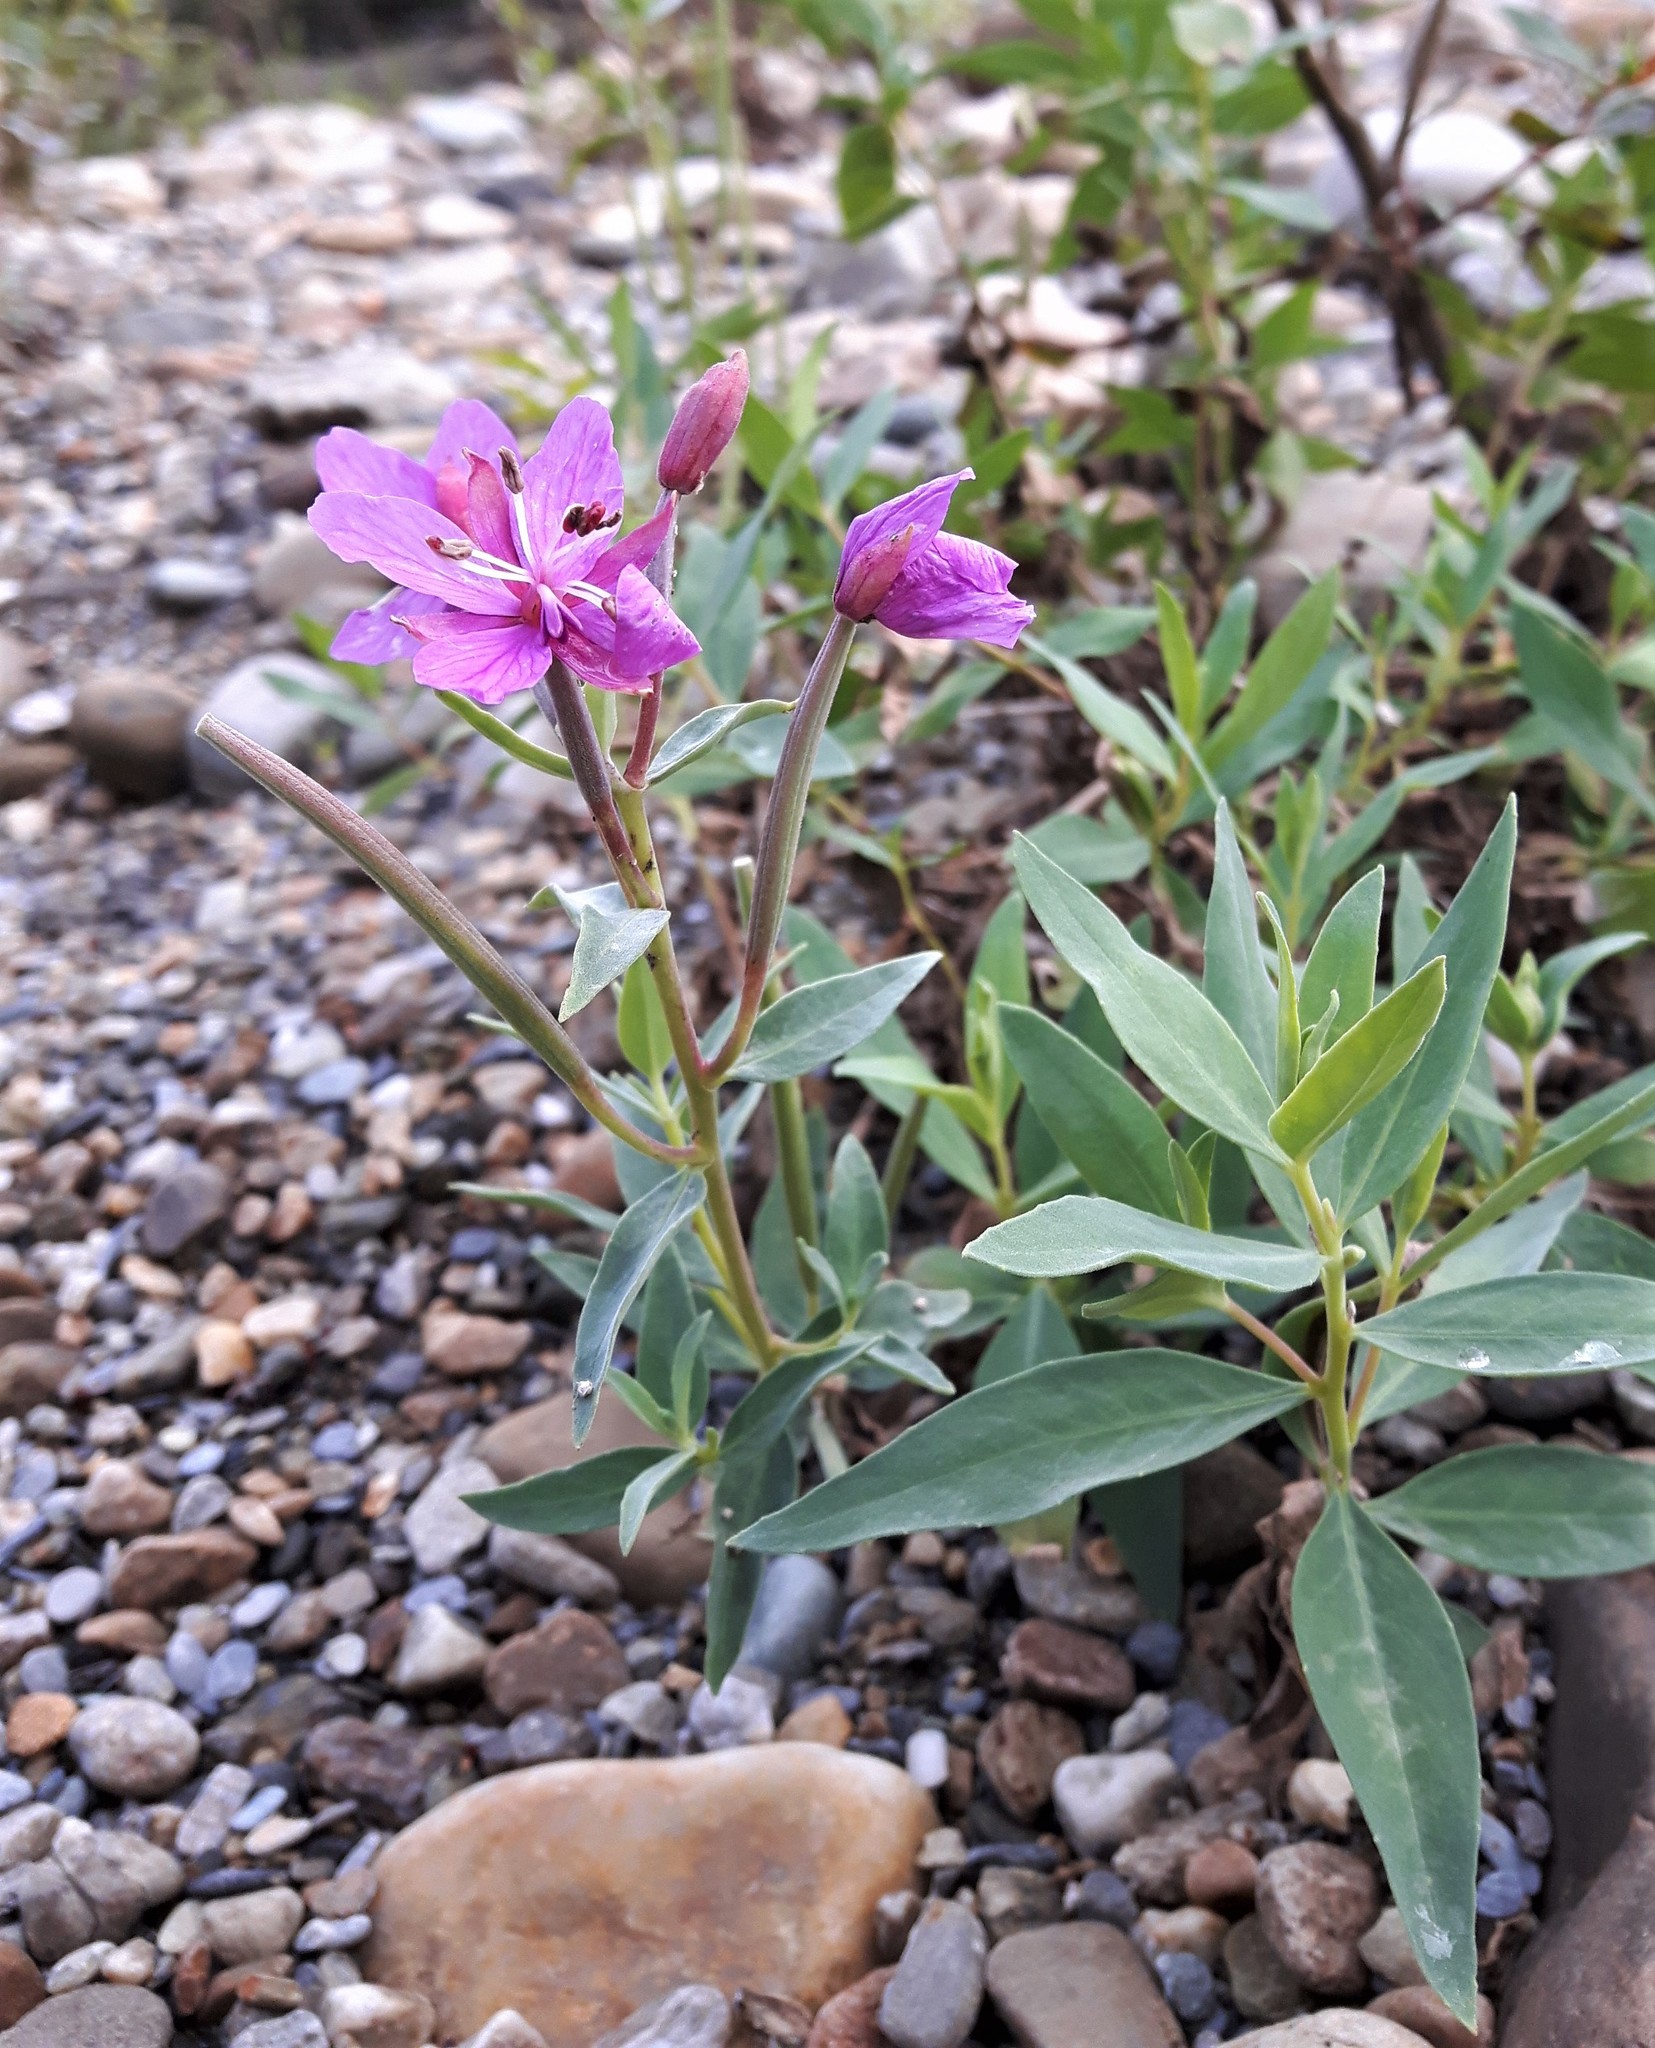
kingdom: Plantae
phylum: Tracheophyta
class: Magnoliopsida
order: Myrtales
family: Onagraceae
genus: Chamaenerion
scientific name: Chamaenerion latifolium
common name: Dwarf fireweed
